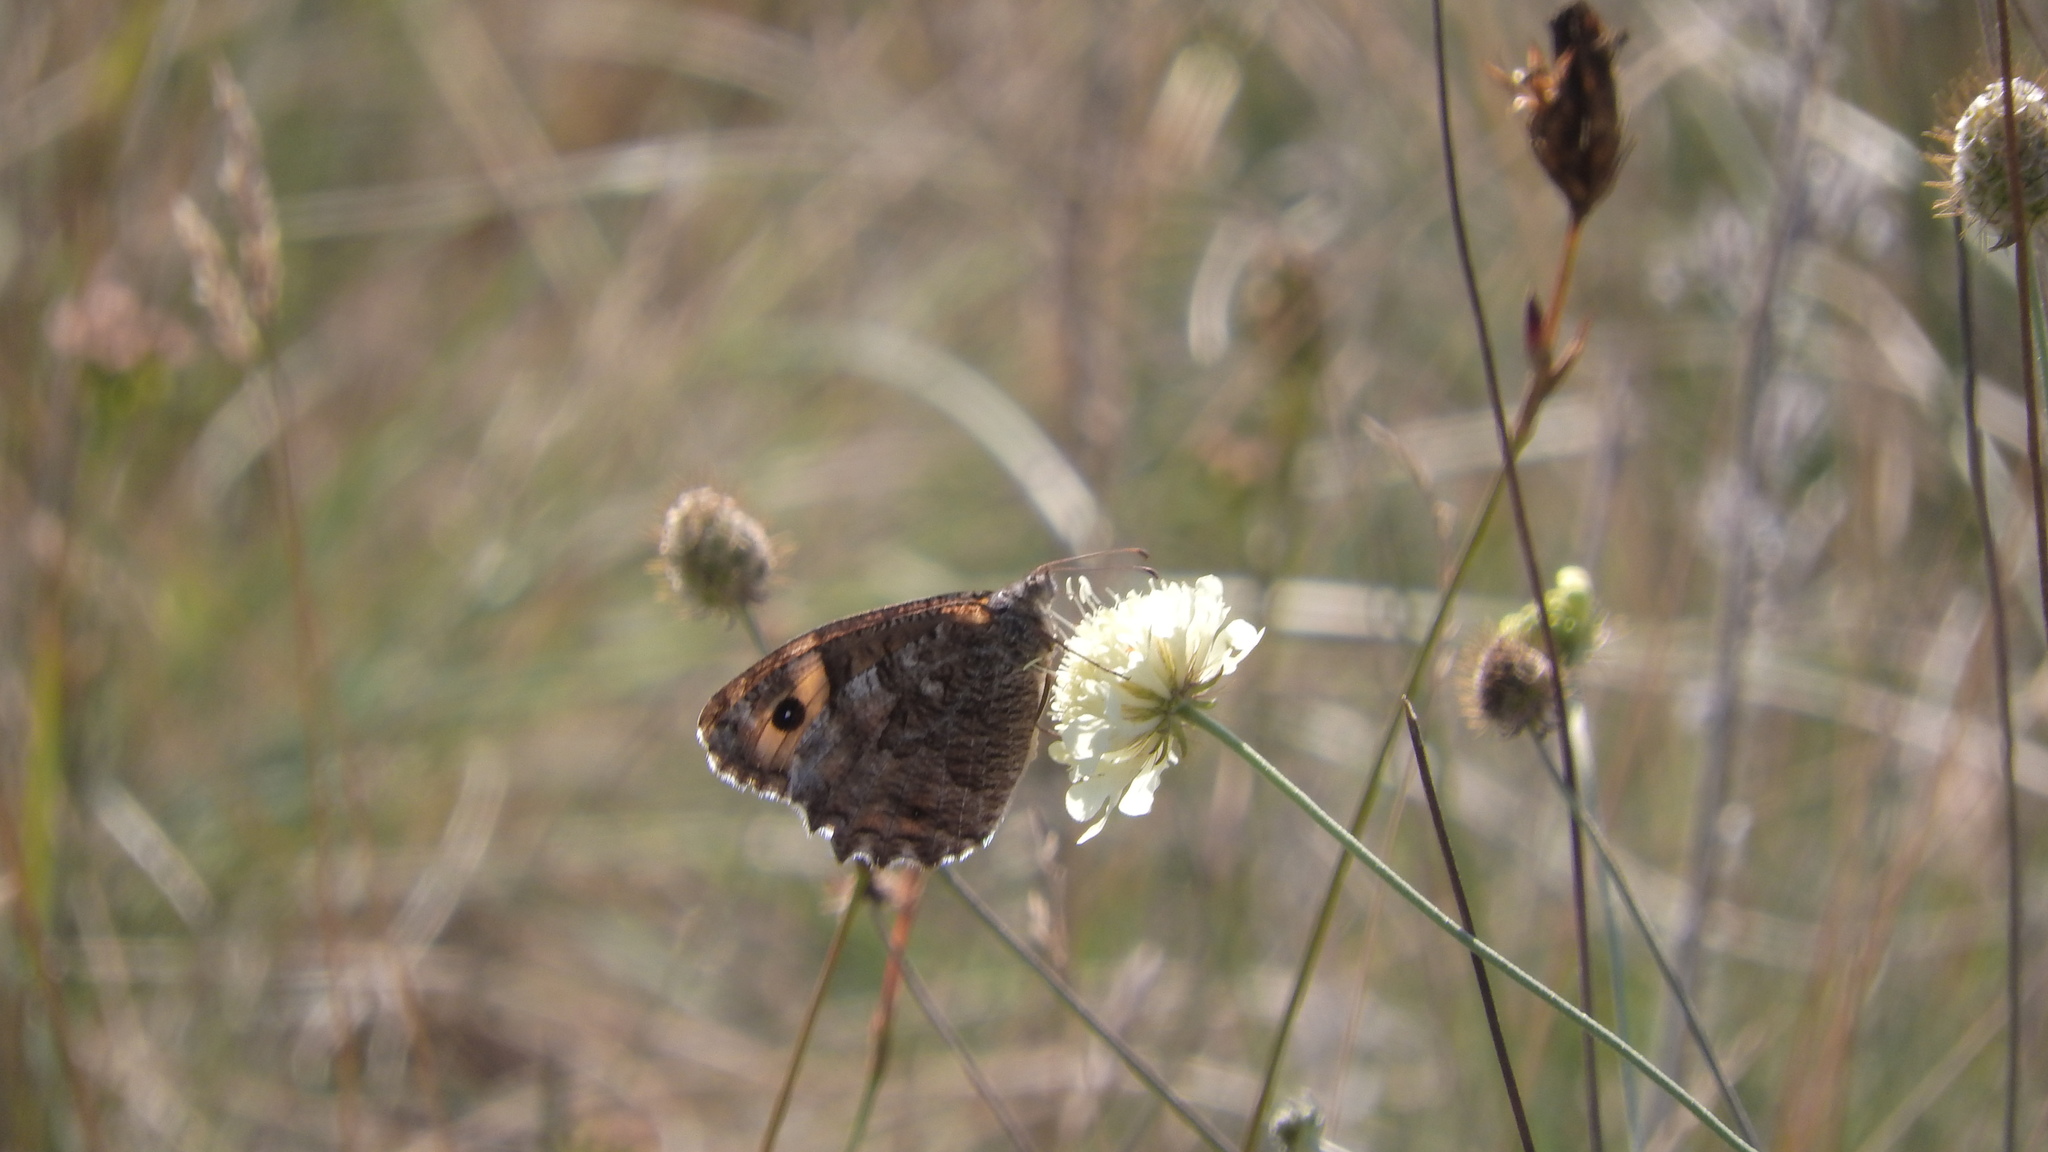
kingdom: Animalia
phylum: Arthropoda
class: Insecta
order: Lepidoptera
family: Nymphalidae
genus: Hipparchia
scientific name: Hipparchia semele
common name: Grayling
